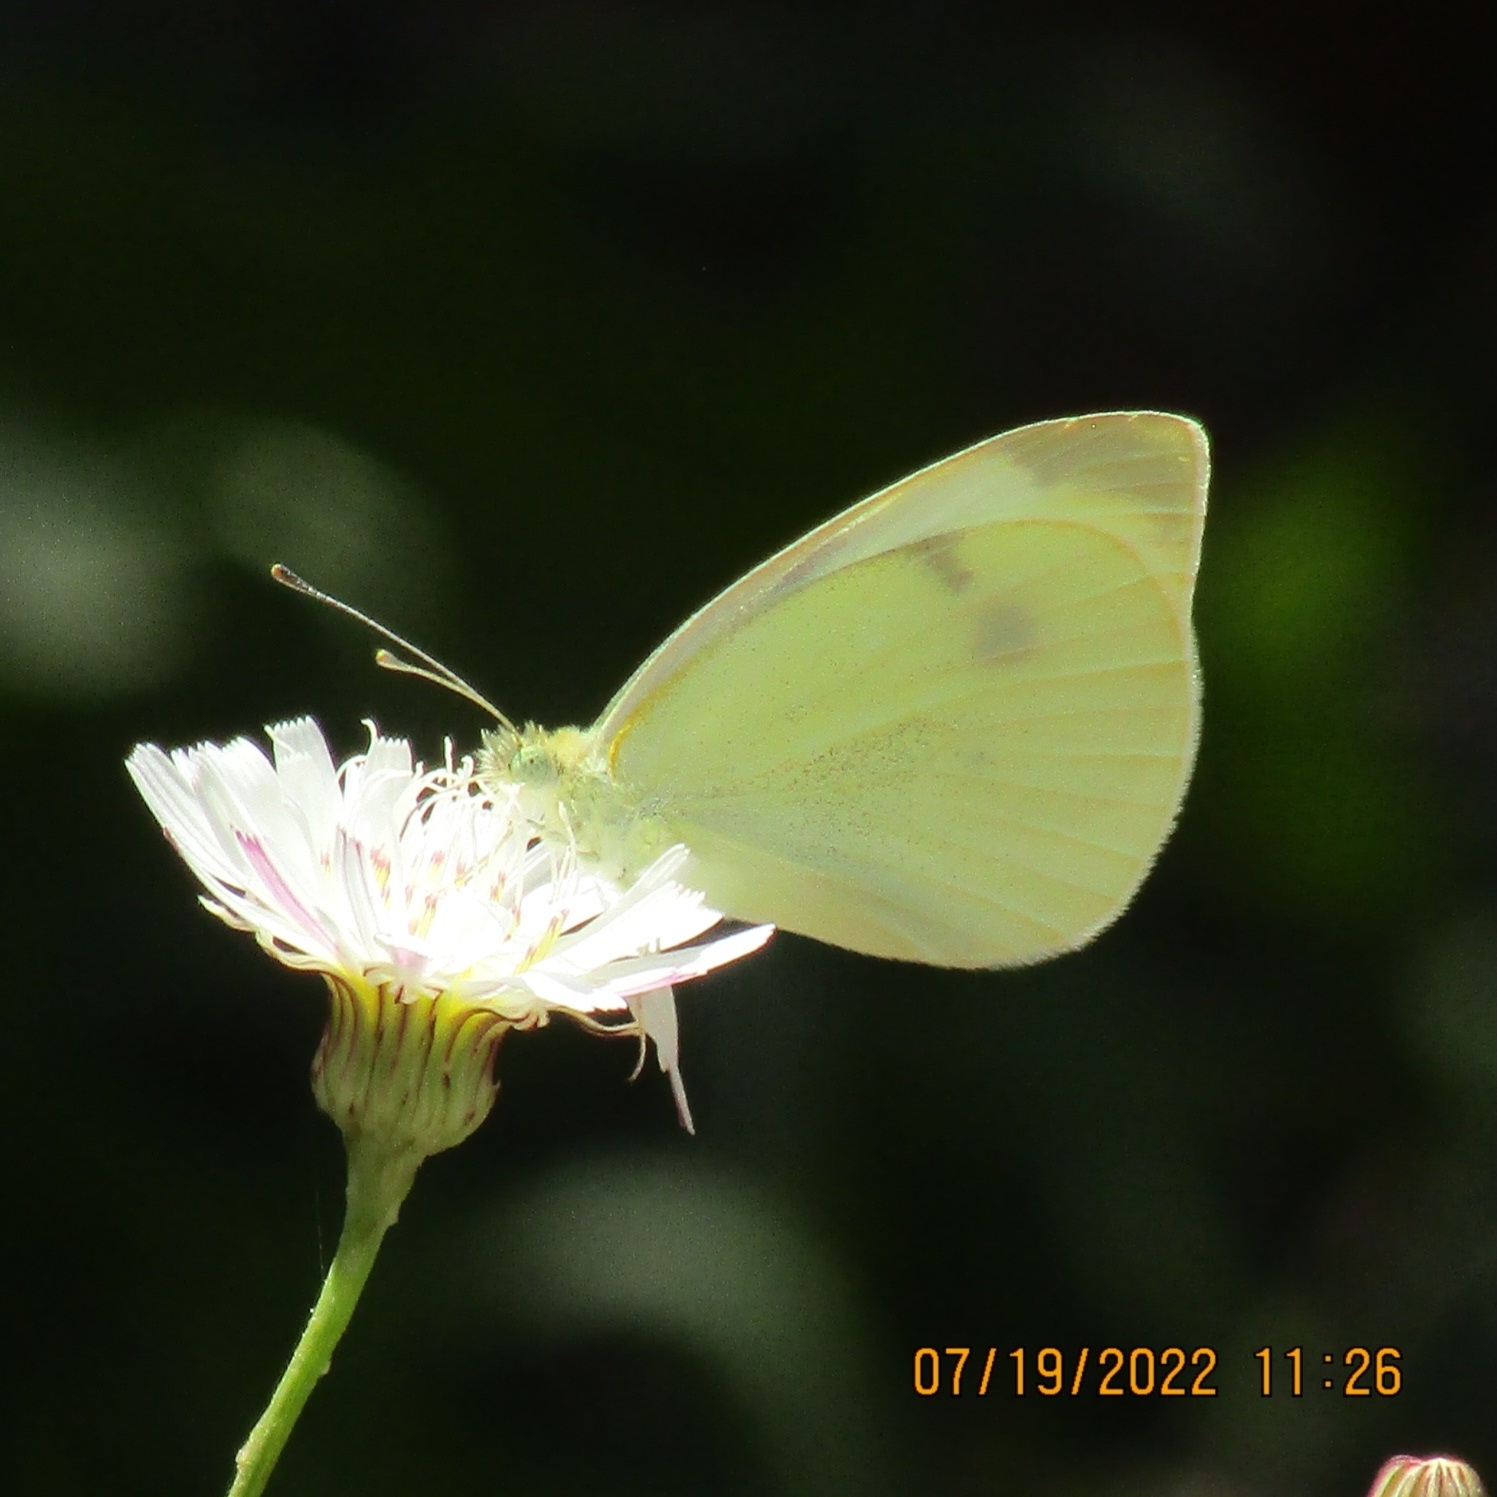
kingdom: Animalia
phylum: Arthropoda
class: Insecta
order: Lepidoptera
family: Pieridae
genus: Pieris
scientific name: Pieris rapae
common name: Small white
